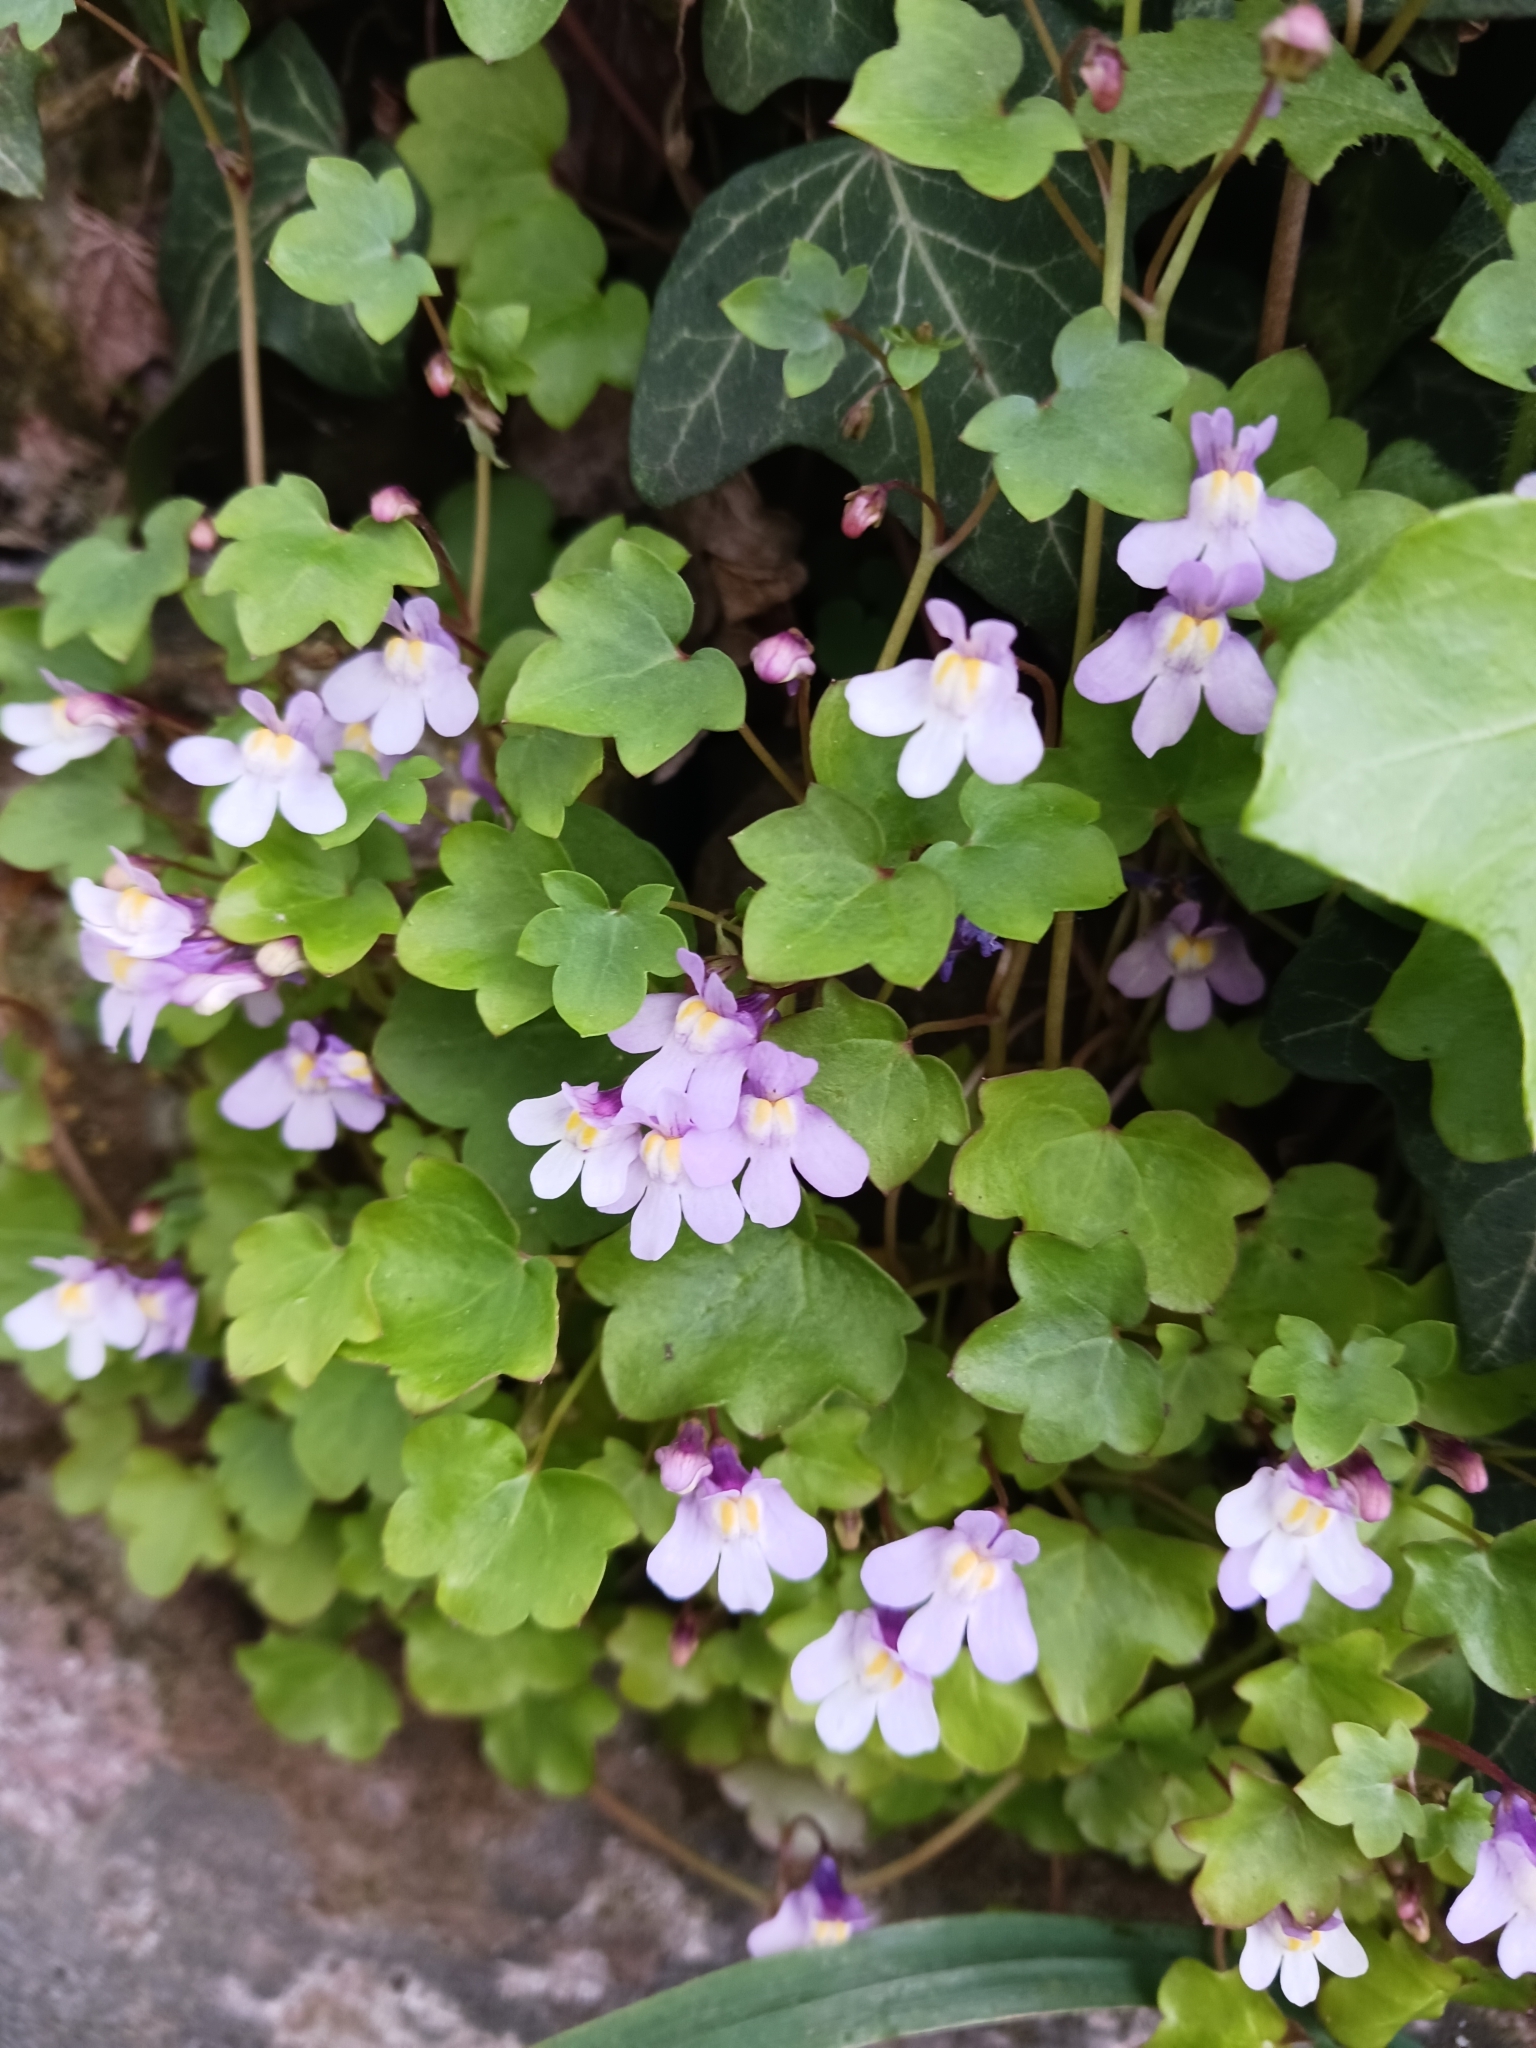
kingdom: Plantae
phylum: Tracheophyta
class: Magnoliopsida
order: Lamiales
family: Plantaginaceae
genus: Cymbalaria
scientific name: Cymbalaria muralis
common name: Ivy-leaved toadflax
